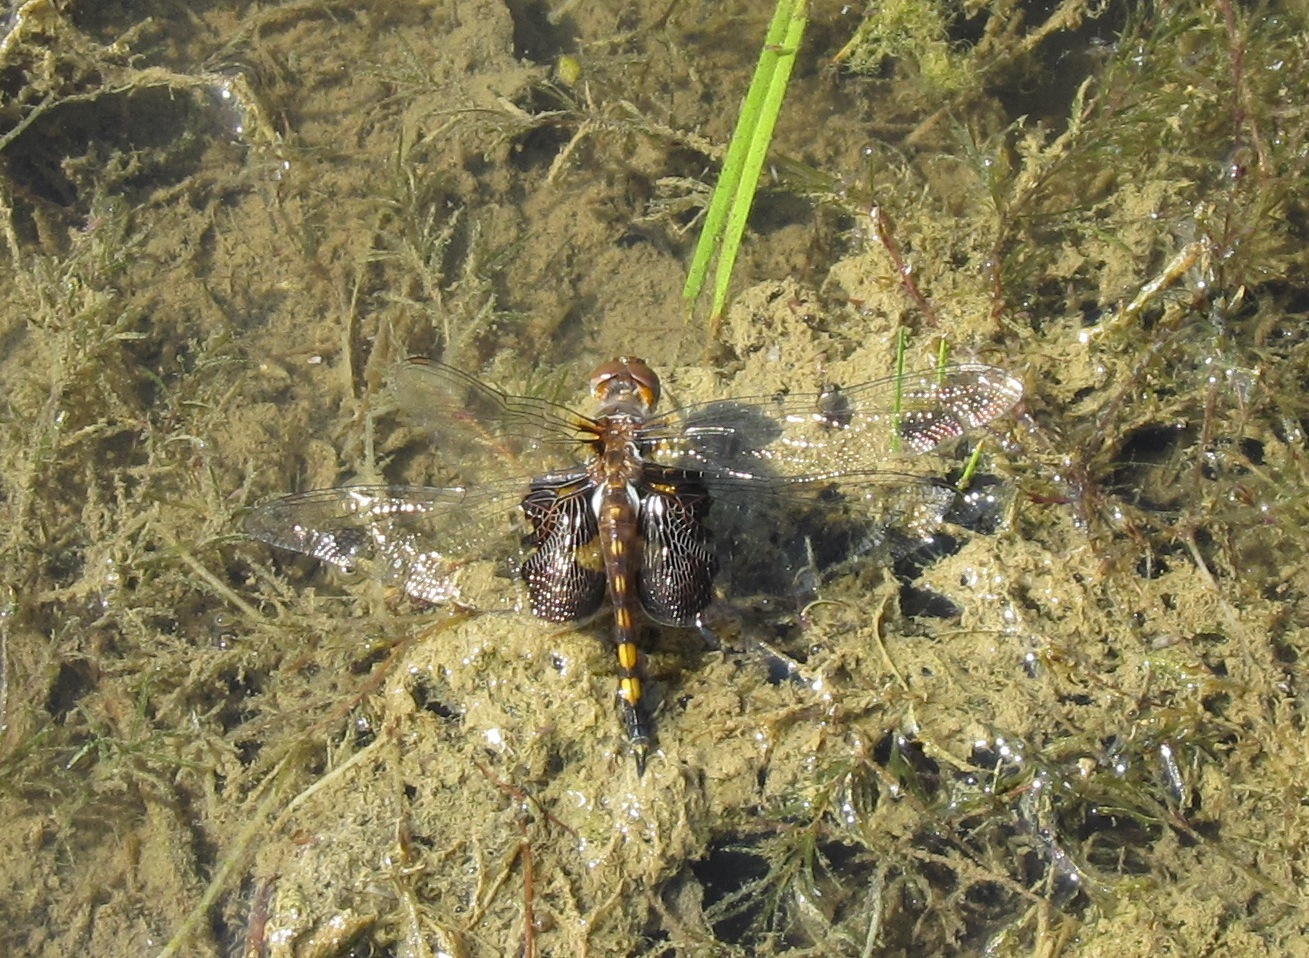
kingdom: Animalia
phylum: Arthropoda
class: Insecta
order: Odonata
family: Libellulidae
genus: Tramea
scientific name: Tramea lacerata
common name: Black saddlebags
